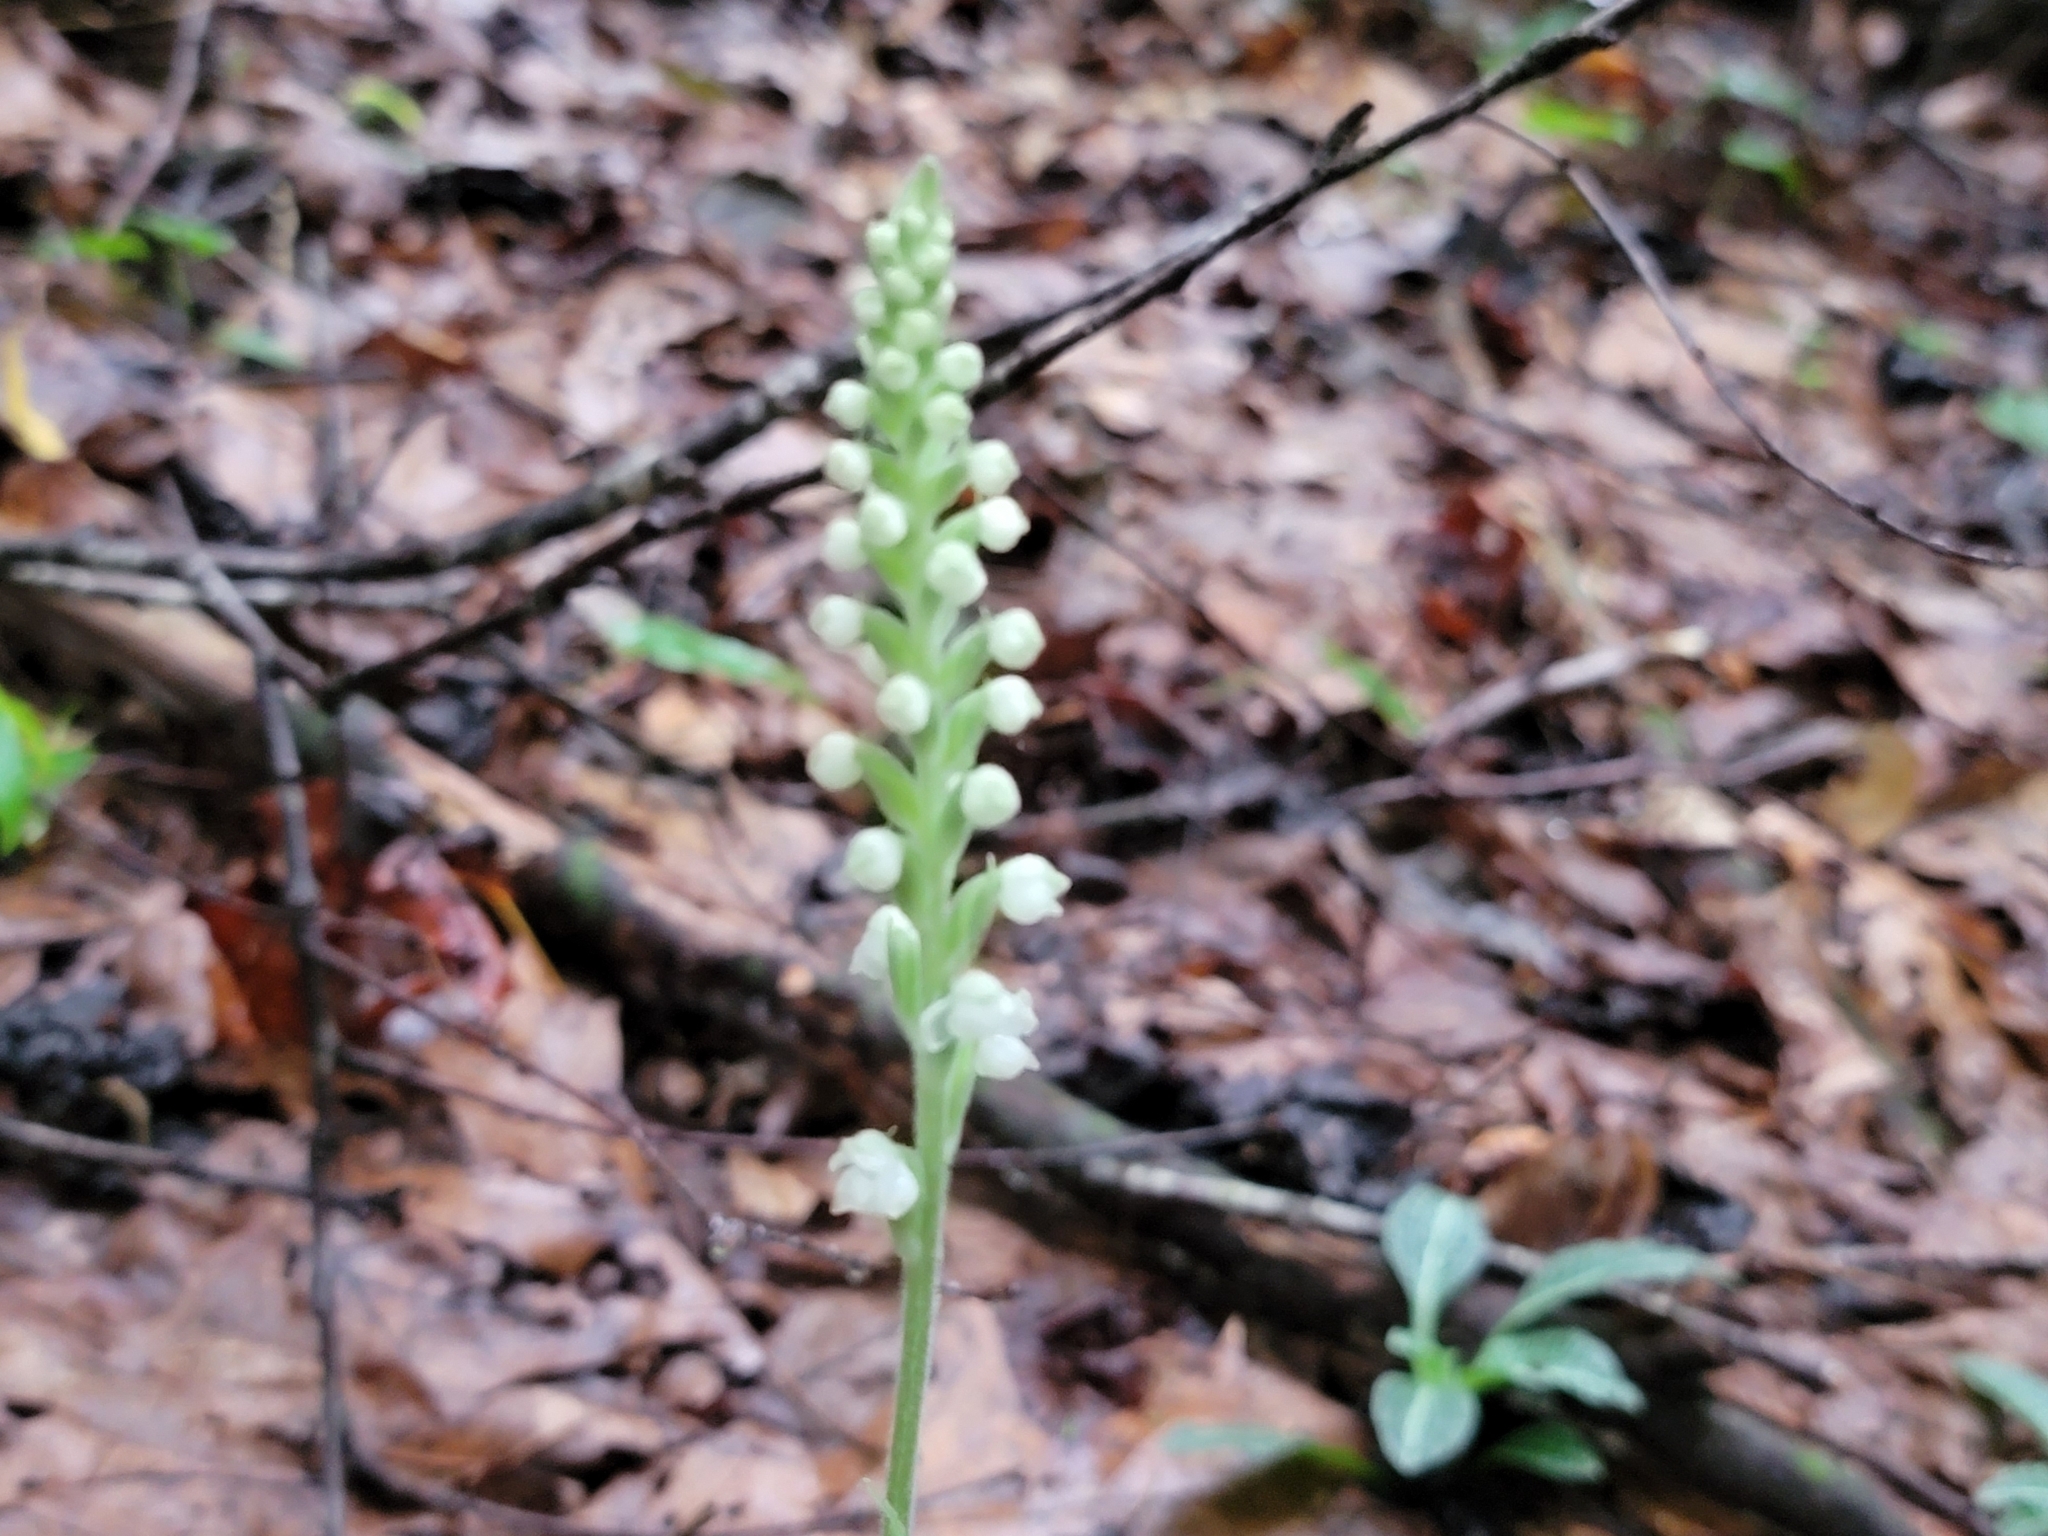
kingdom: Plantae
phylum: Tracheophyta
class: Liliopsida
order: Asparagales
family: Orchidaceae
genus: Goodyera
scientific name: Goodyera pubescens
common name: Downy rattlesnake-plantain
